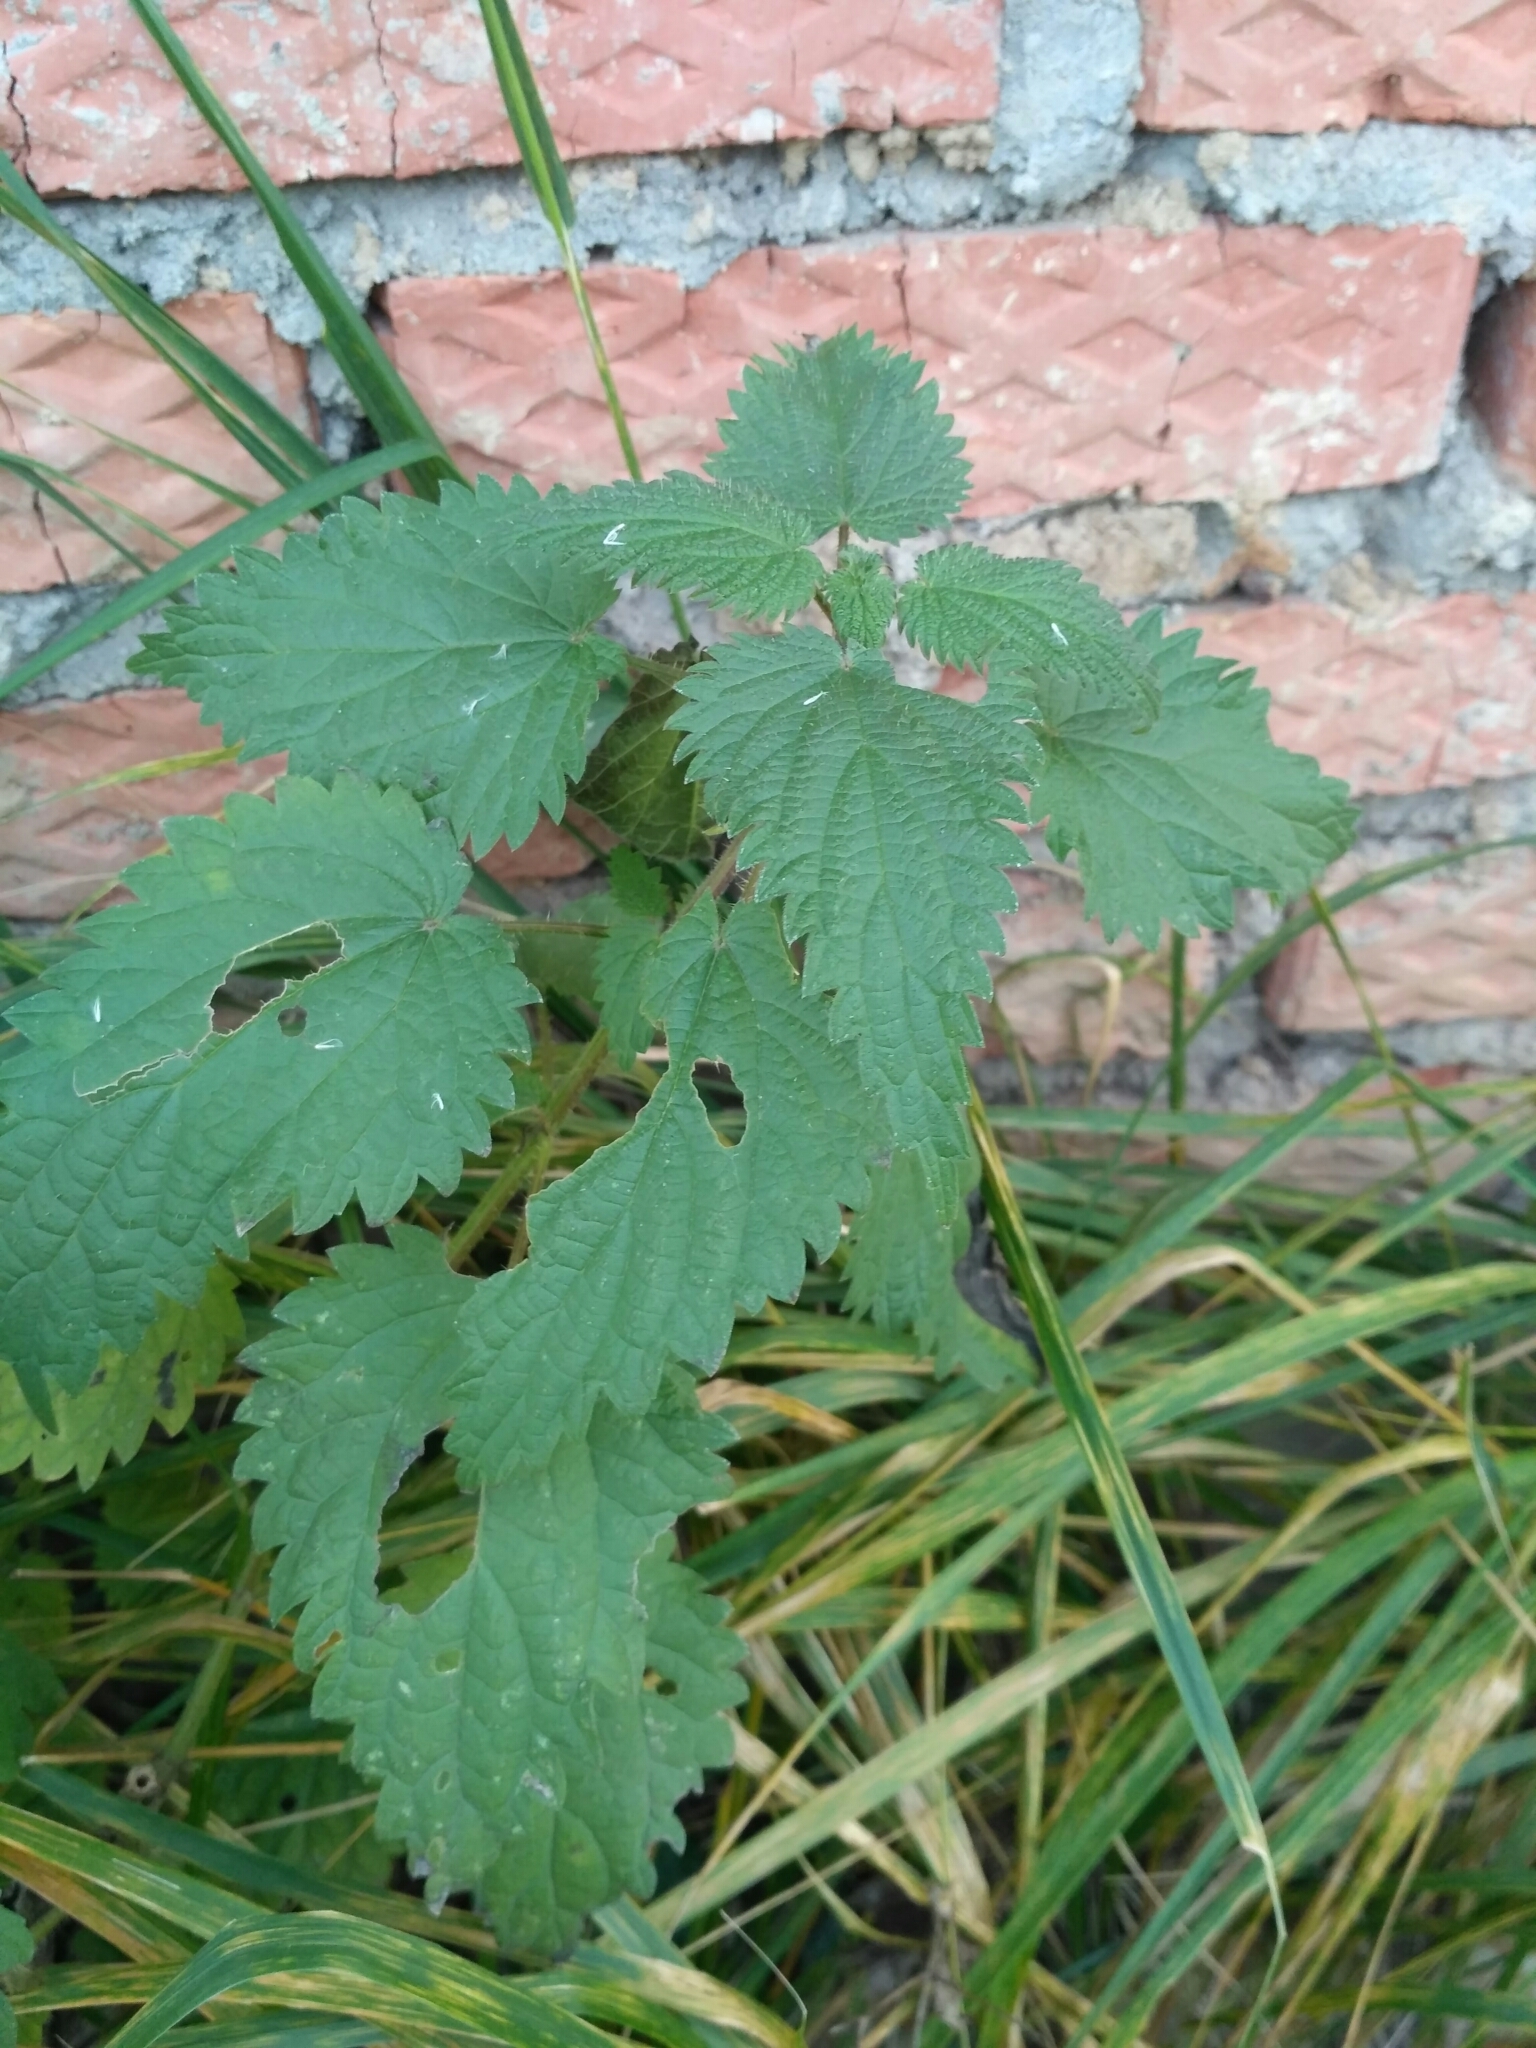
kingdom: Plantae
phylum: Tracheophyta
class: Magnoliopsida
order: Rosales
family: Urticaceae
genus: Urtica
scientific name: Urtica dioica
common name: Common nettle
